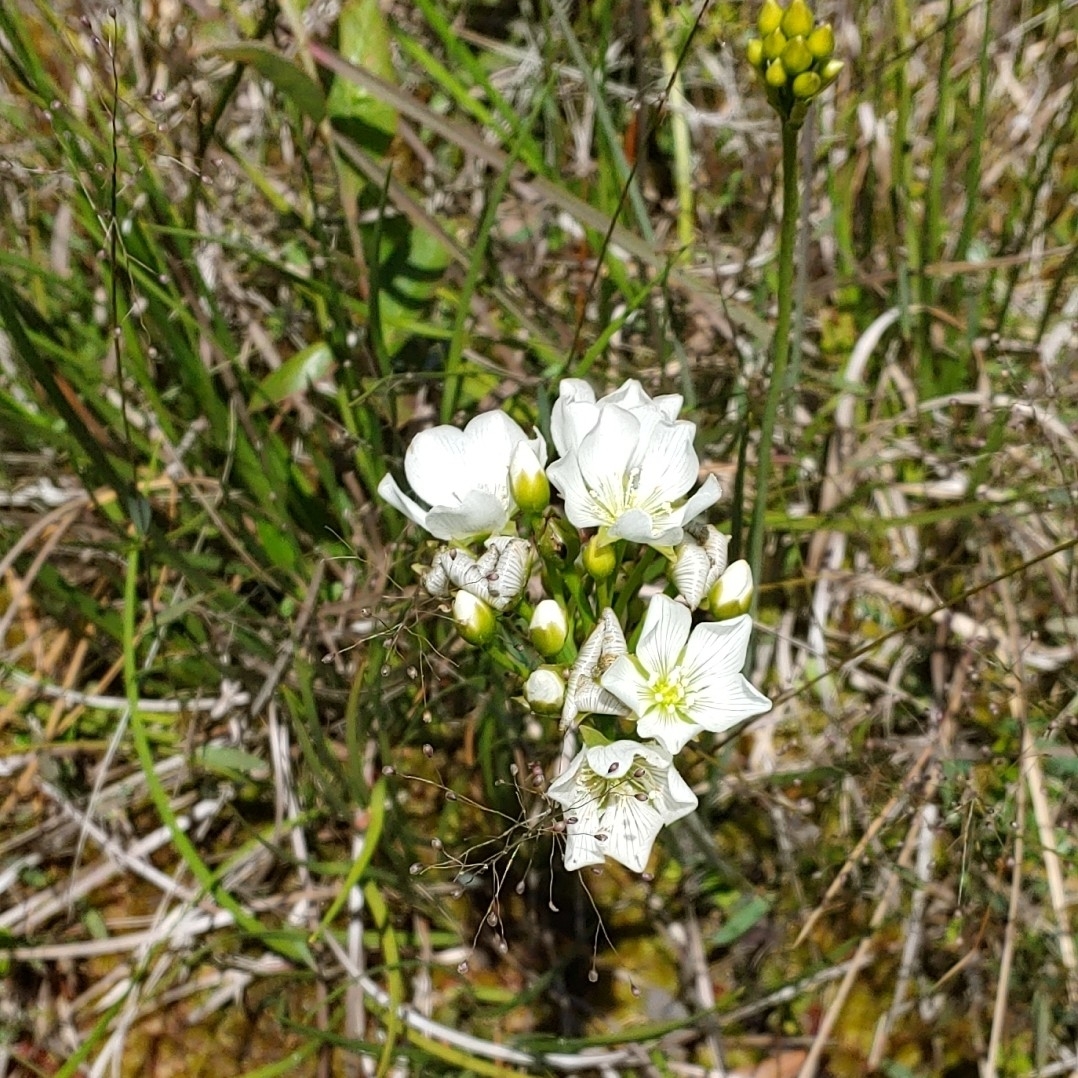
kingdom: Plantae
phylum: Tracheophyta
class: Magnoliopsida
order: Caryophyllales
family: Droseraceae
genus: Dionaea
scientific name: Dionaea muscipula
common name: Venus flytrap
